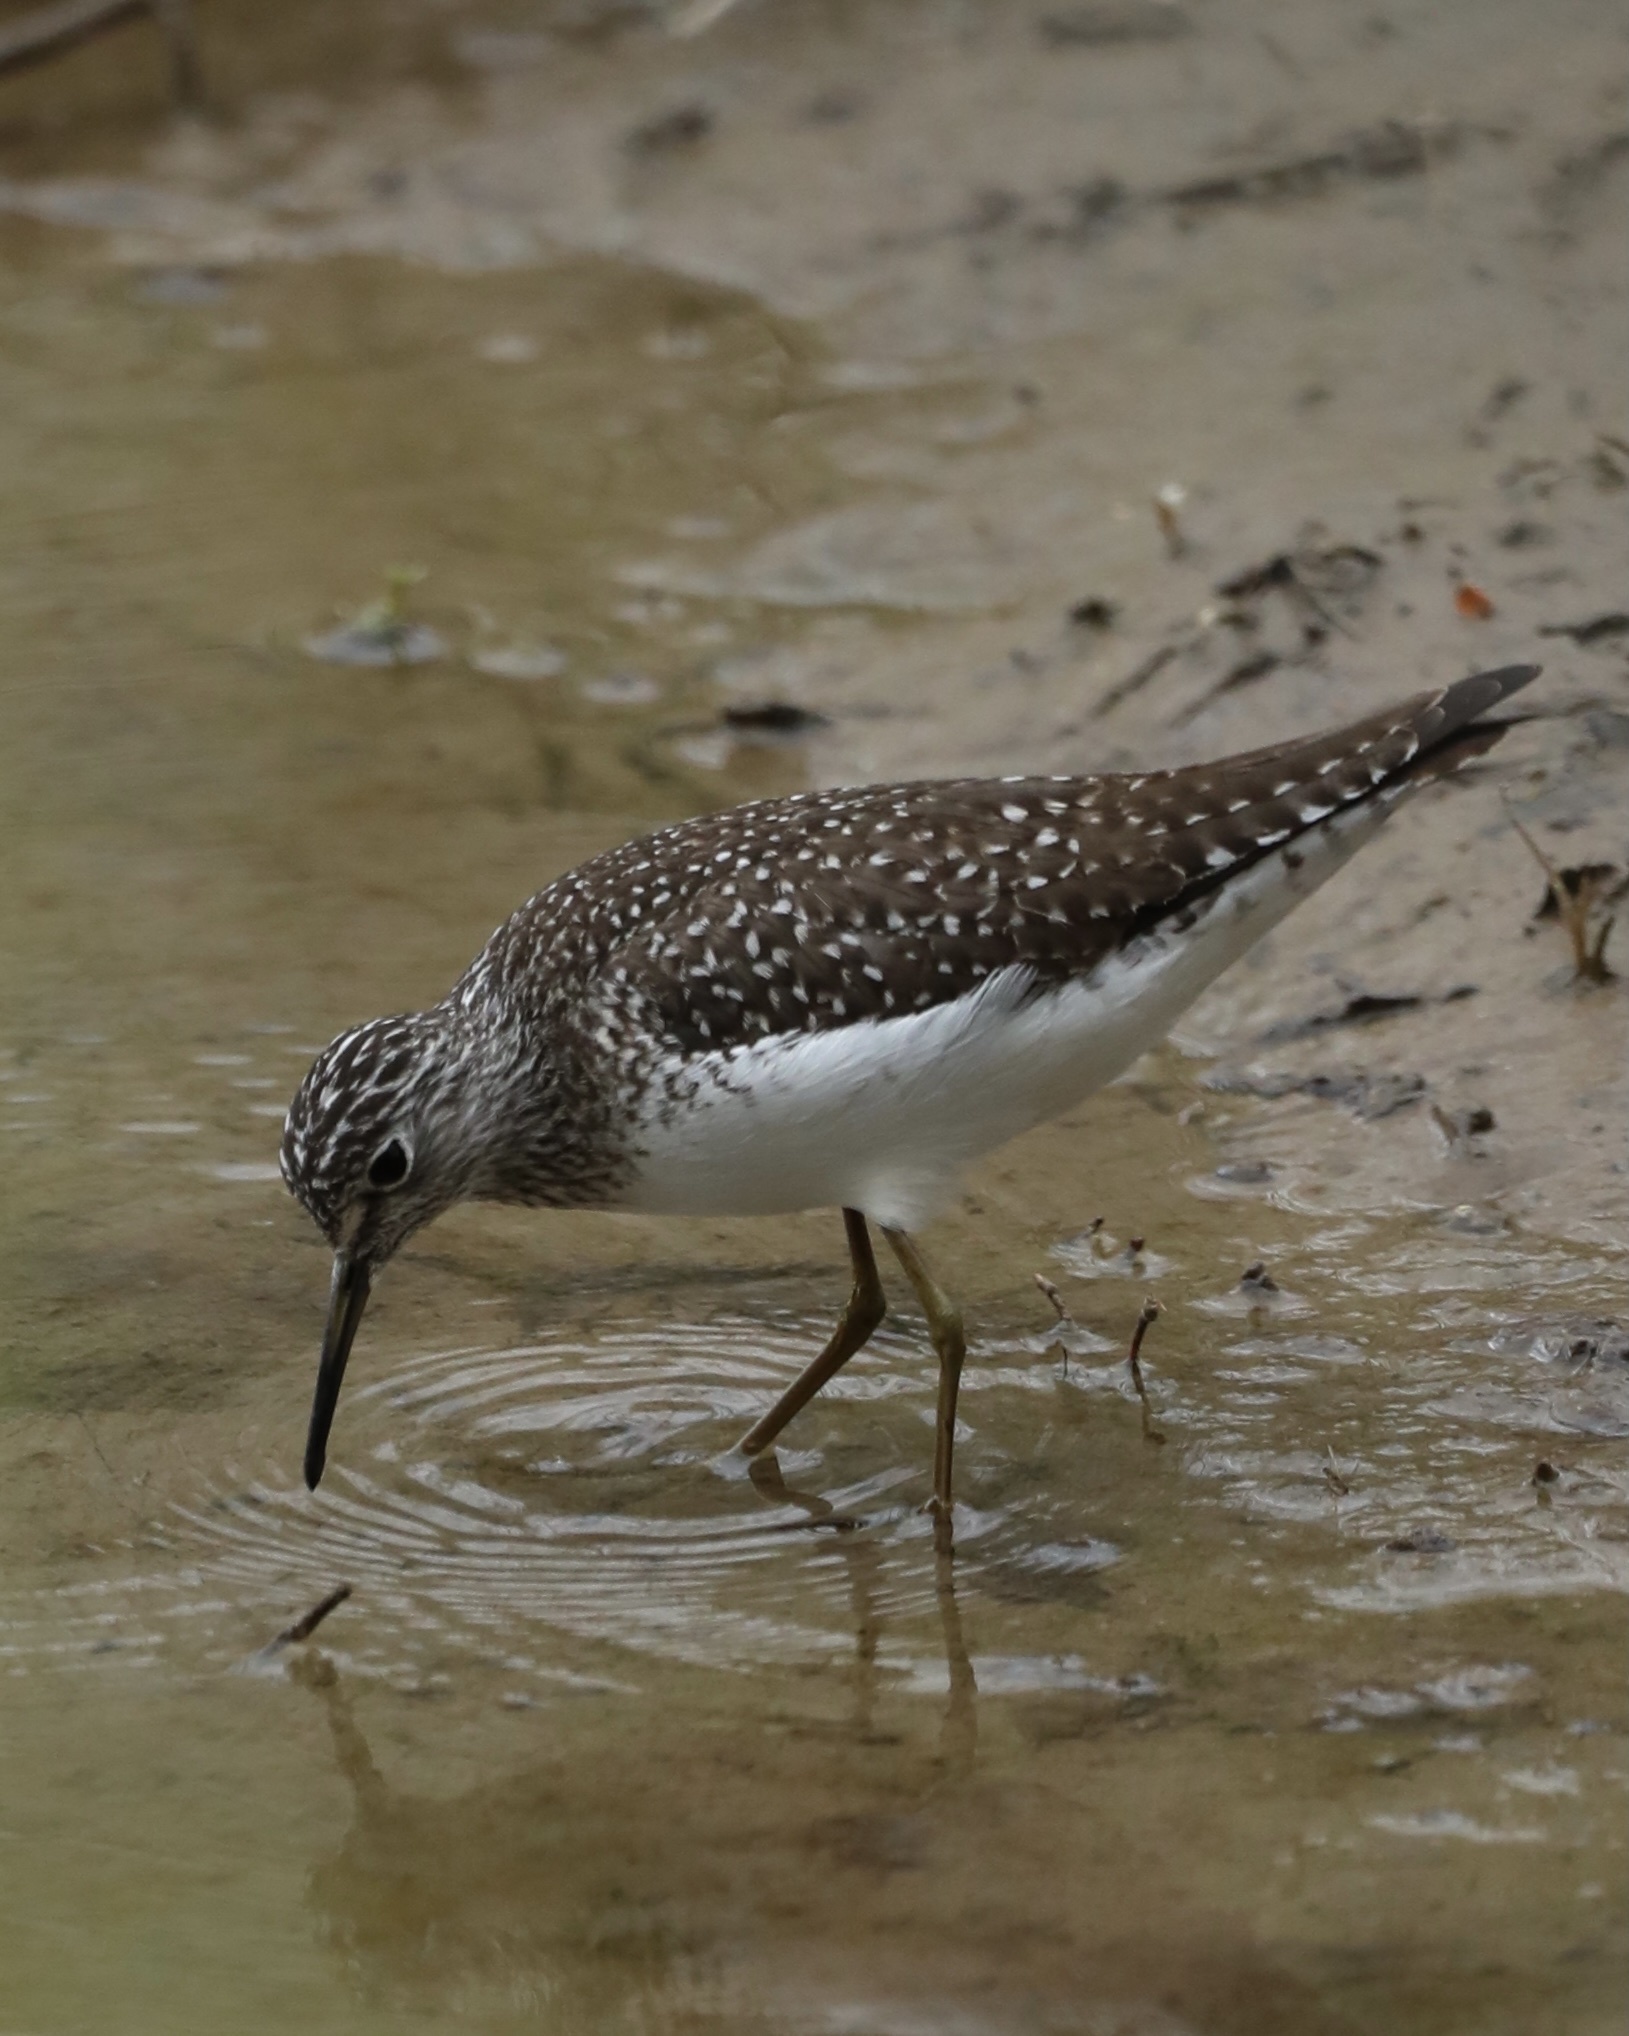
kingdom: Animalia
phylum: Chordata
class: Aves
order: Charadriiformes
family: Scolopacidae
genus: Tringa
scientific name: Tringa solitaria
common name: Solitary sandpiper
